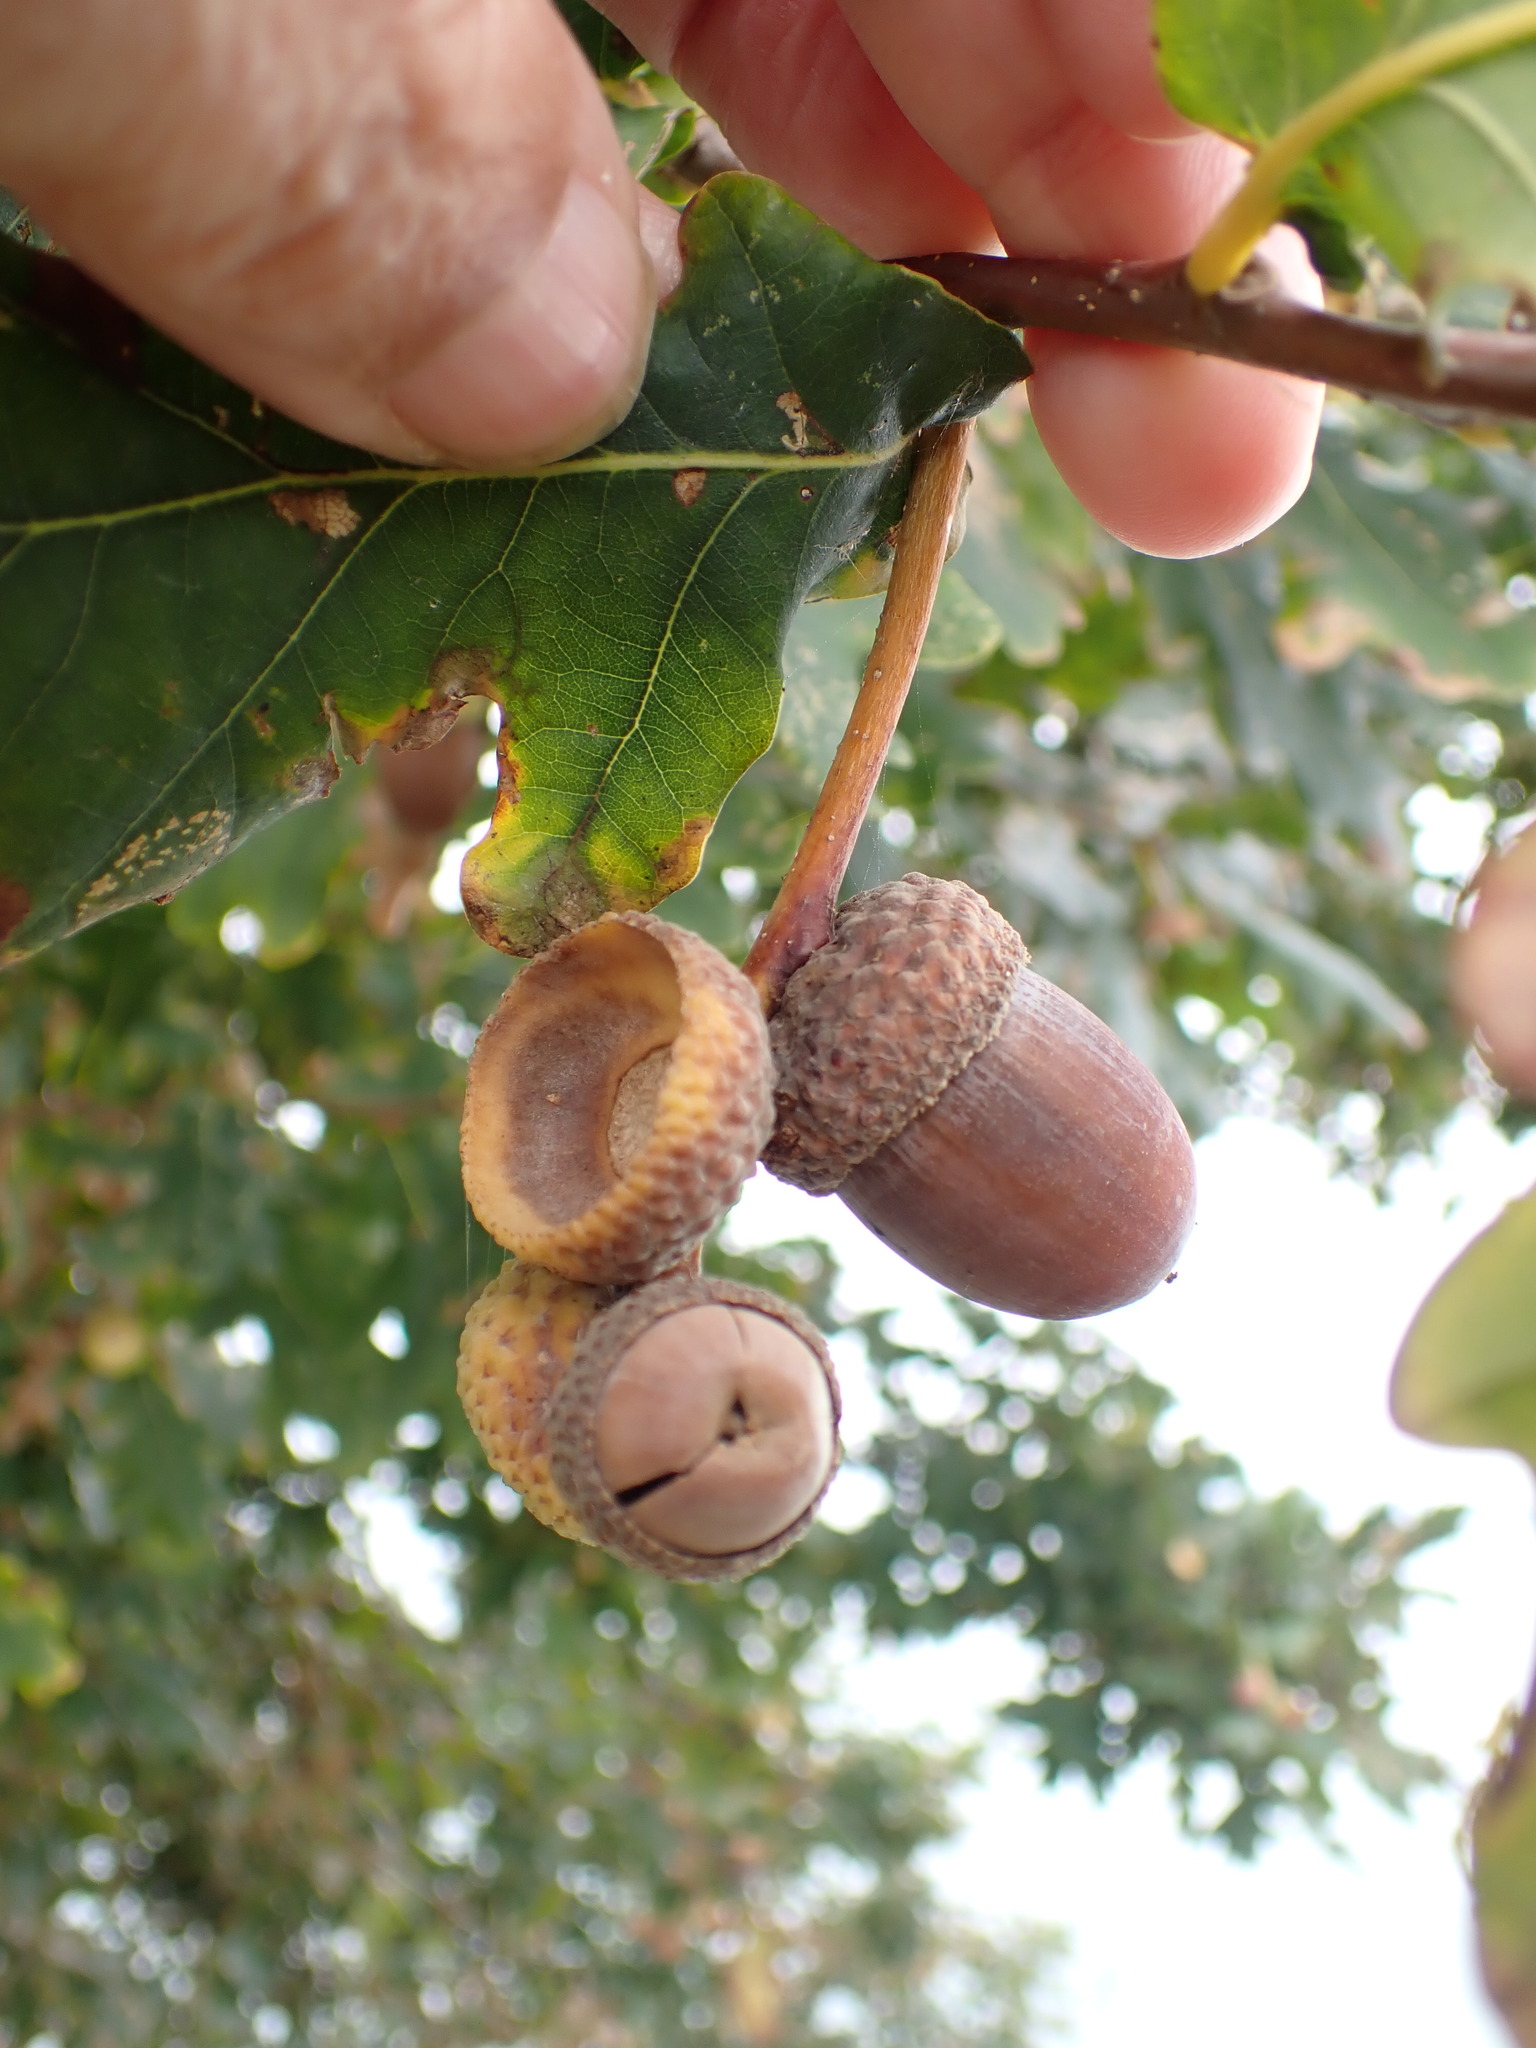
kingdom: Plantae
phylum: Tracheophyta
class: Magnoliopsida
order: Fagales
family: Fagaceae
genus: Quercus
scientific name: Quercus robur
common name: Pedunculate oak
